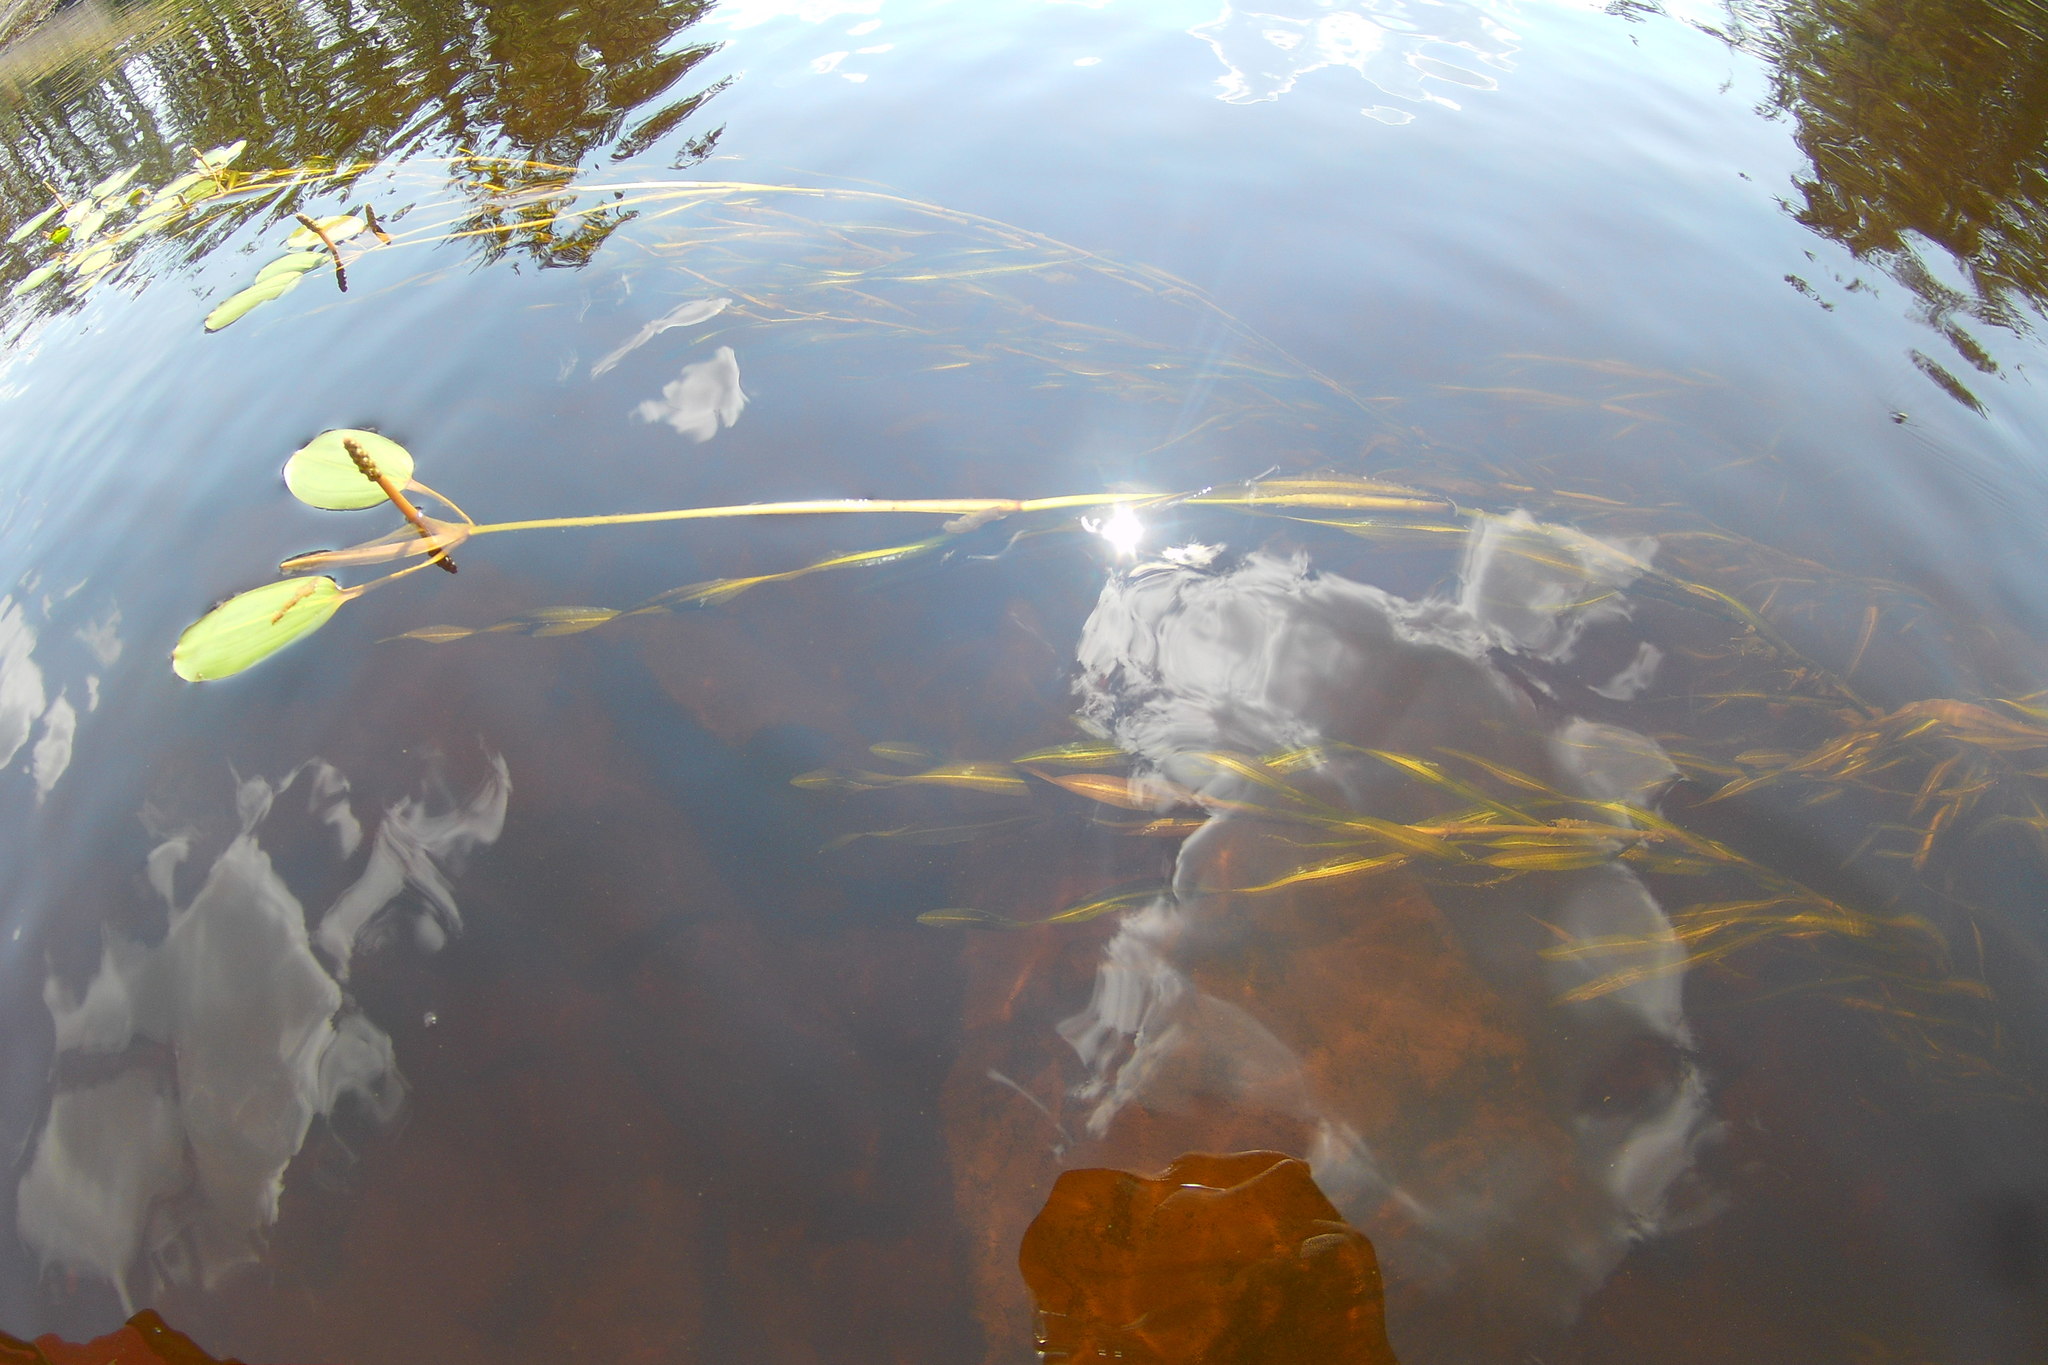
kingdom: Plantae
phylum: Tracheophyta
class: Liliopsida
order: Alismatales
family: Potamogetonaceae
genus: Potamogeton
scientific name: Potamogeton epihydrus
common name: American pondweed
